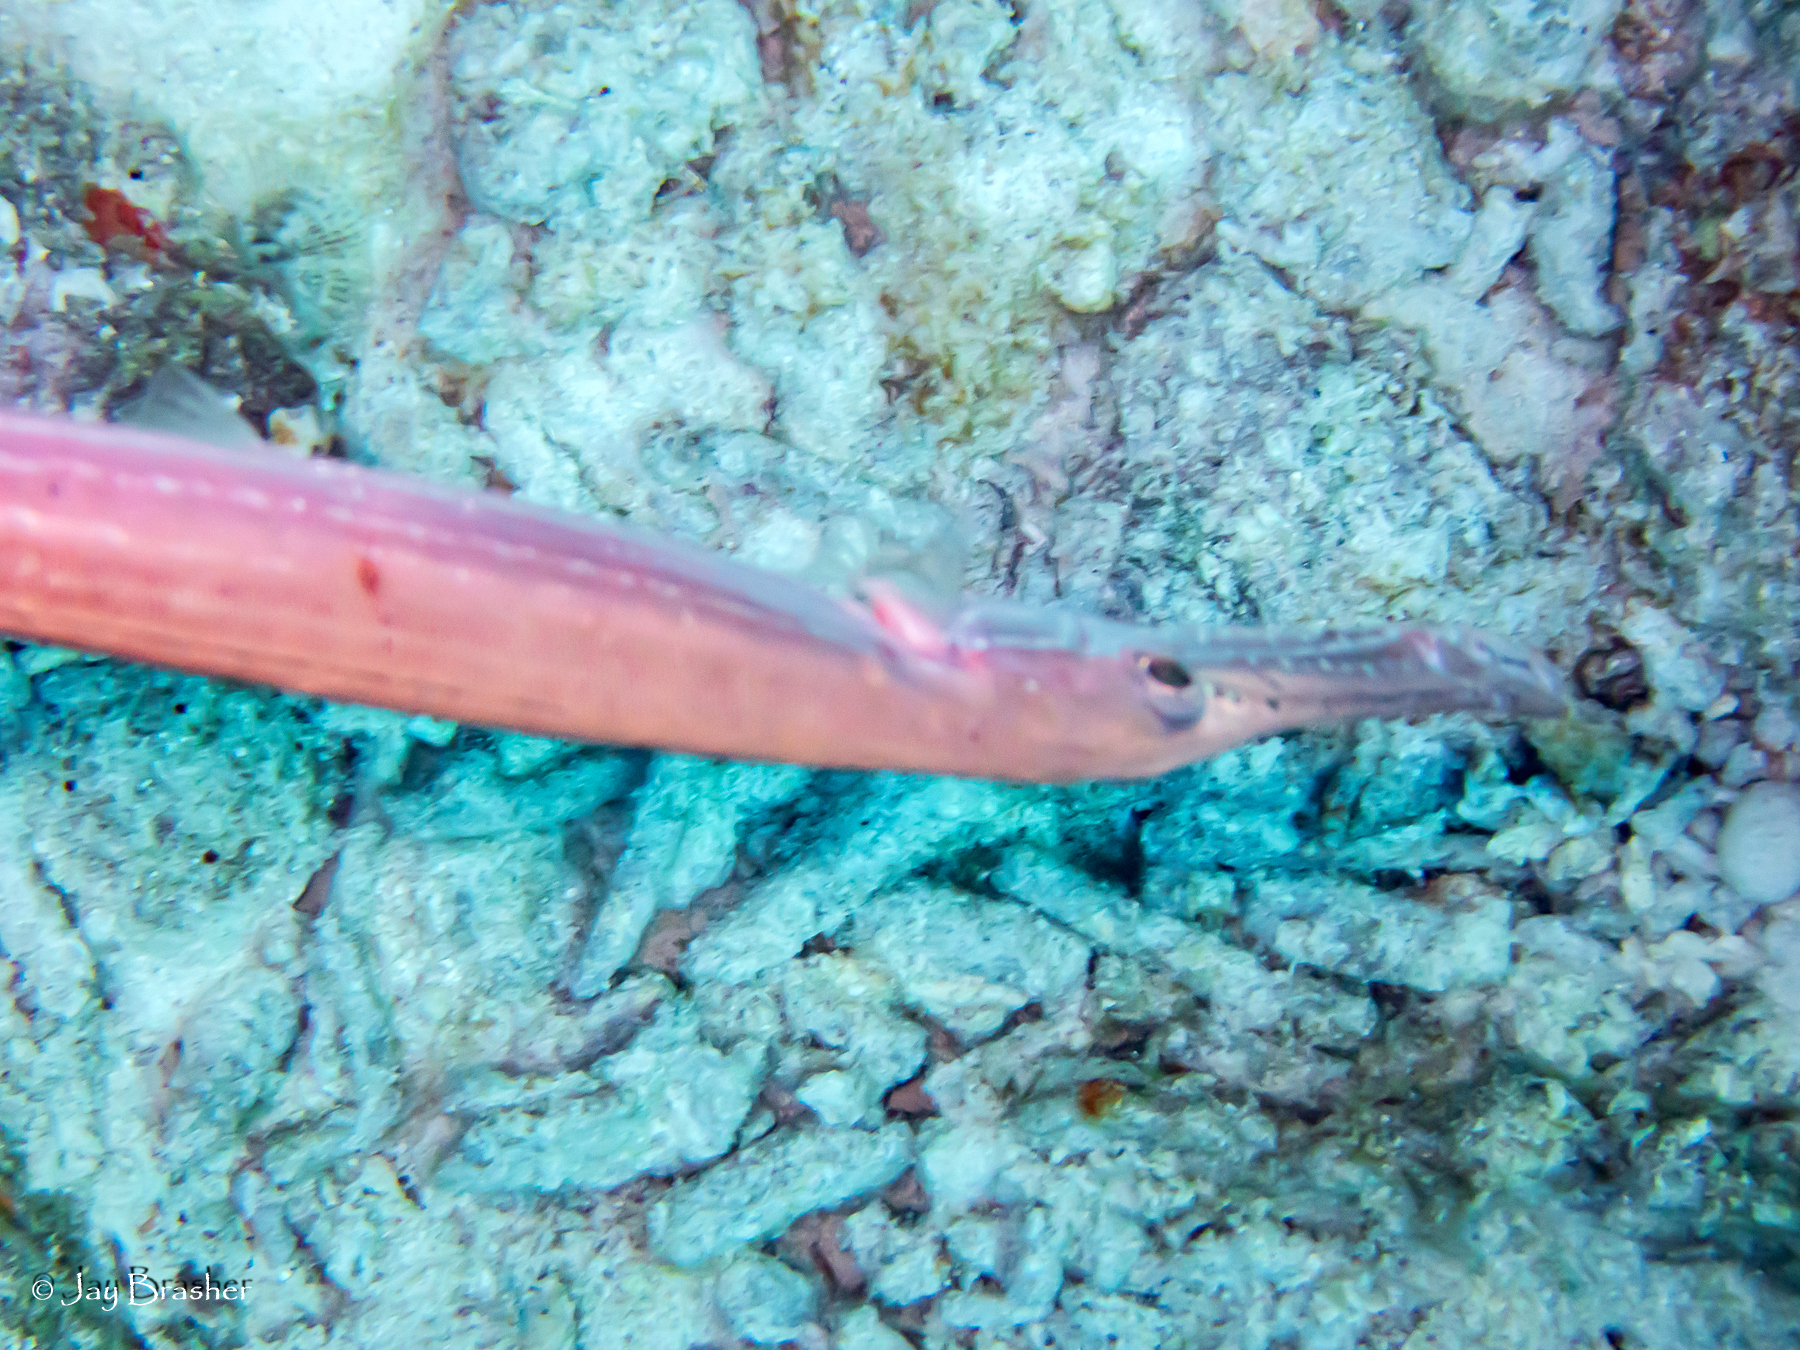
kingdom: Animalia
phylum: Chordata
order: Syngnathiformes
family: Aulostomidae
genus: Aulostomus
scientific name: Aulostomus maculatus
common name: West atlantic trumpetfish
